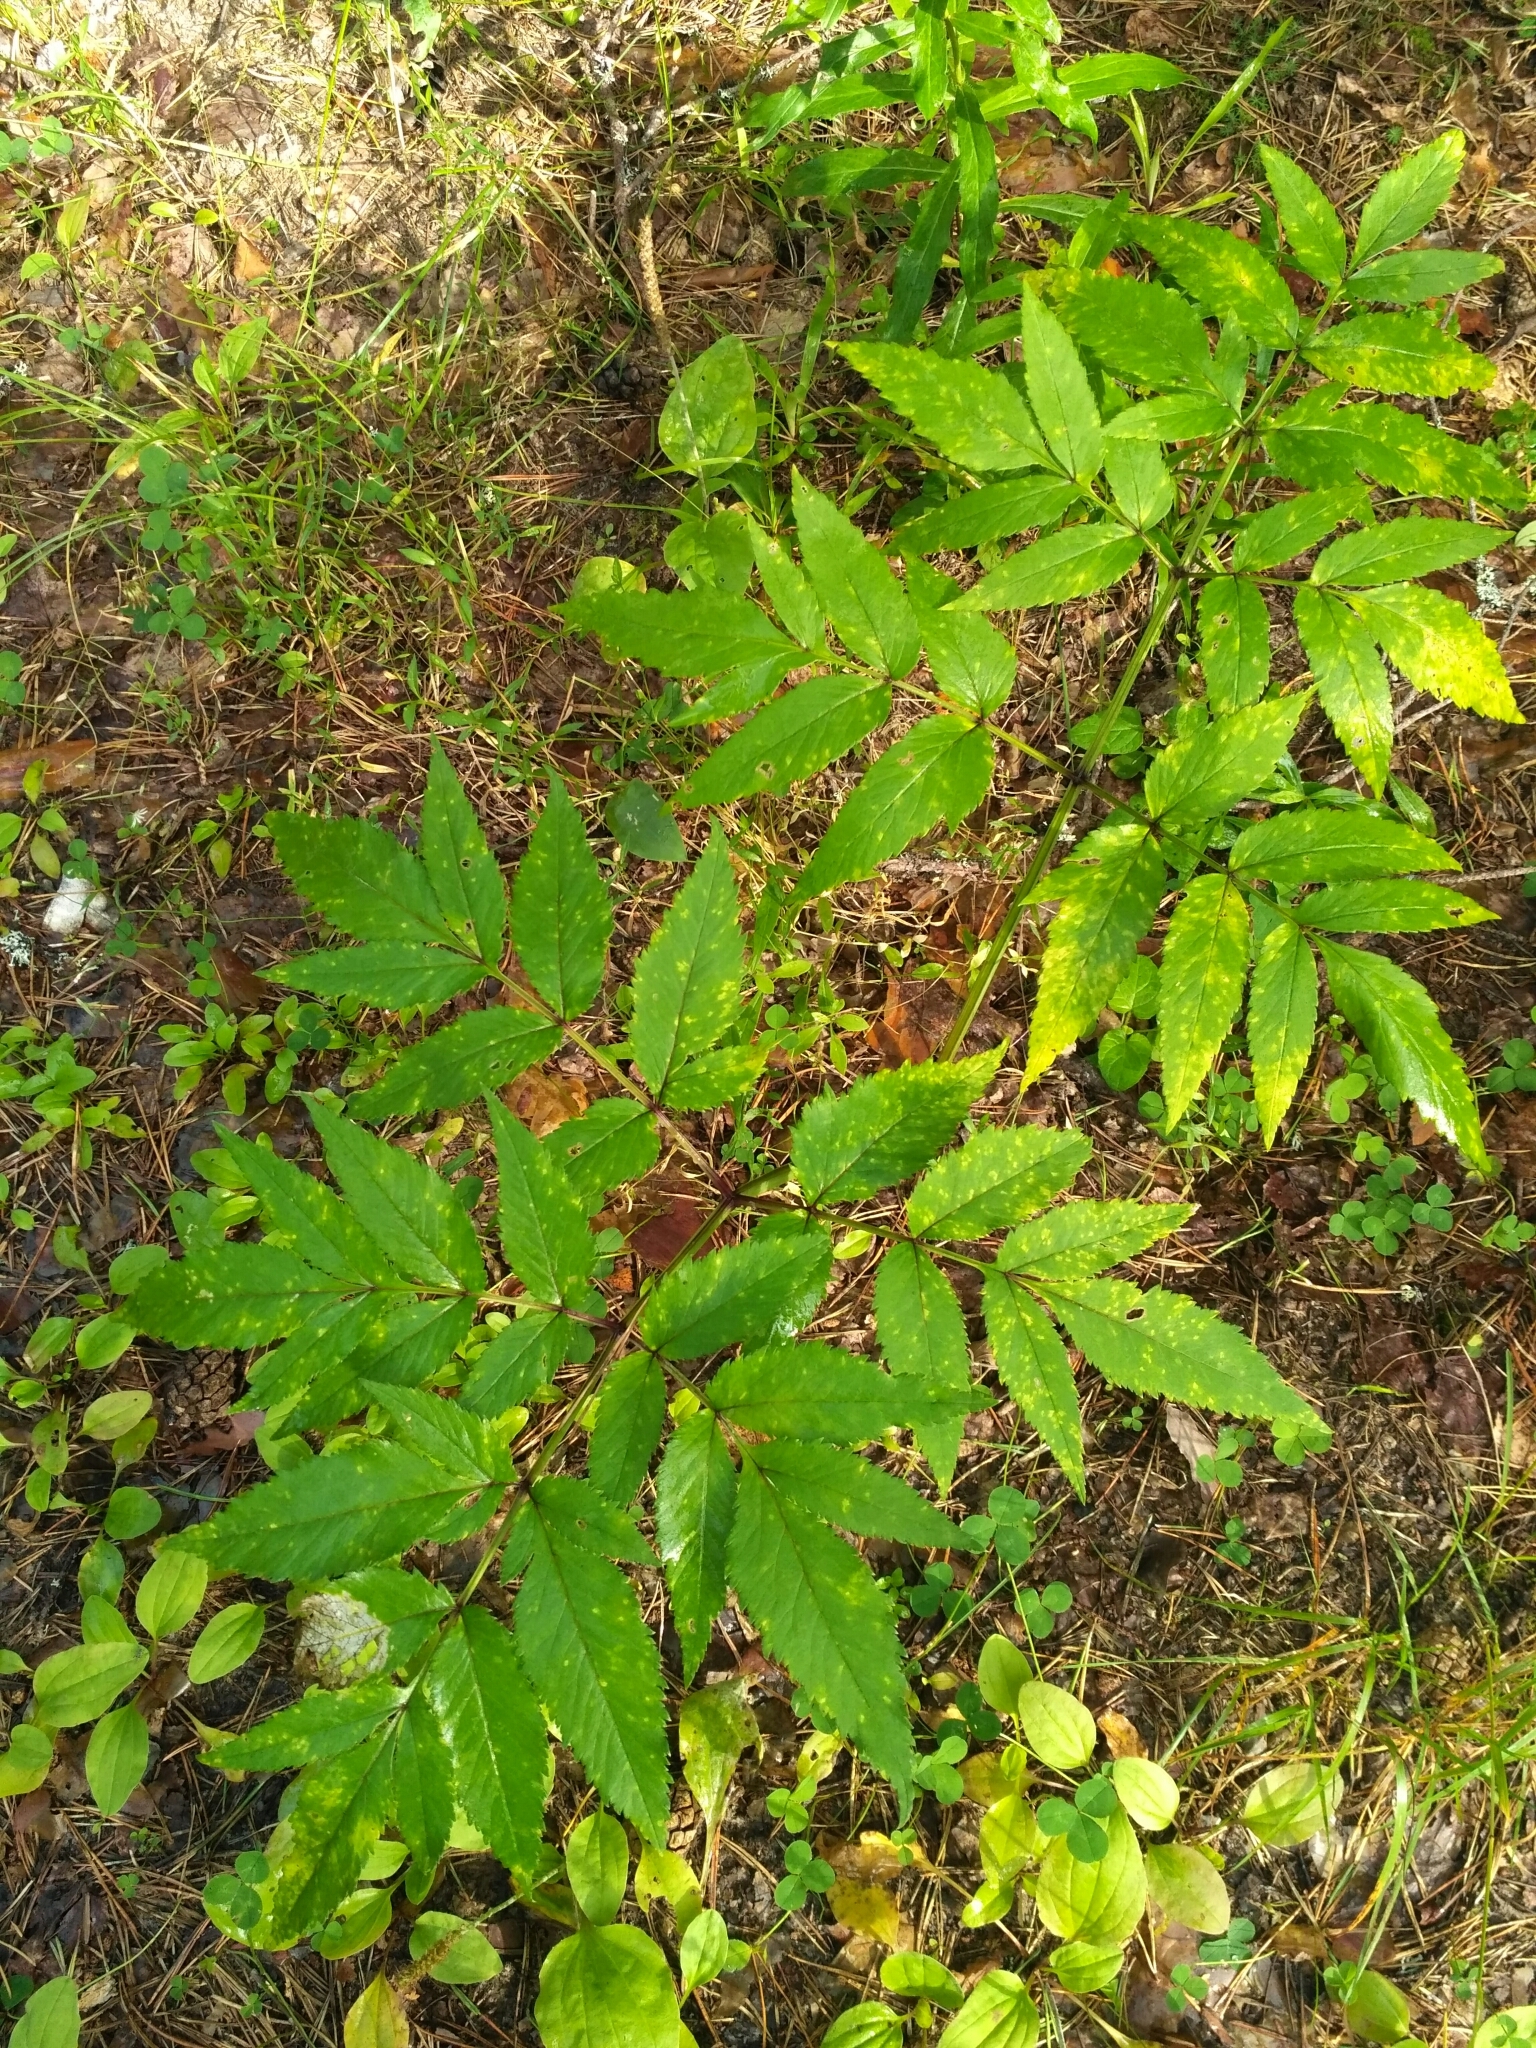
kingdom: Plantae
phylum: Tracheophyta
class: Magnoliopsida
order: Apiales
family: Apiaceae
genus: Angelica
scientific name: Angelica sylvestris
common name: Wild angelica
